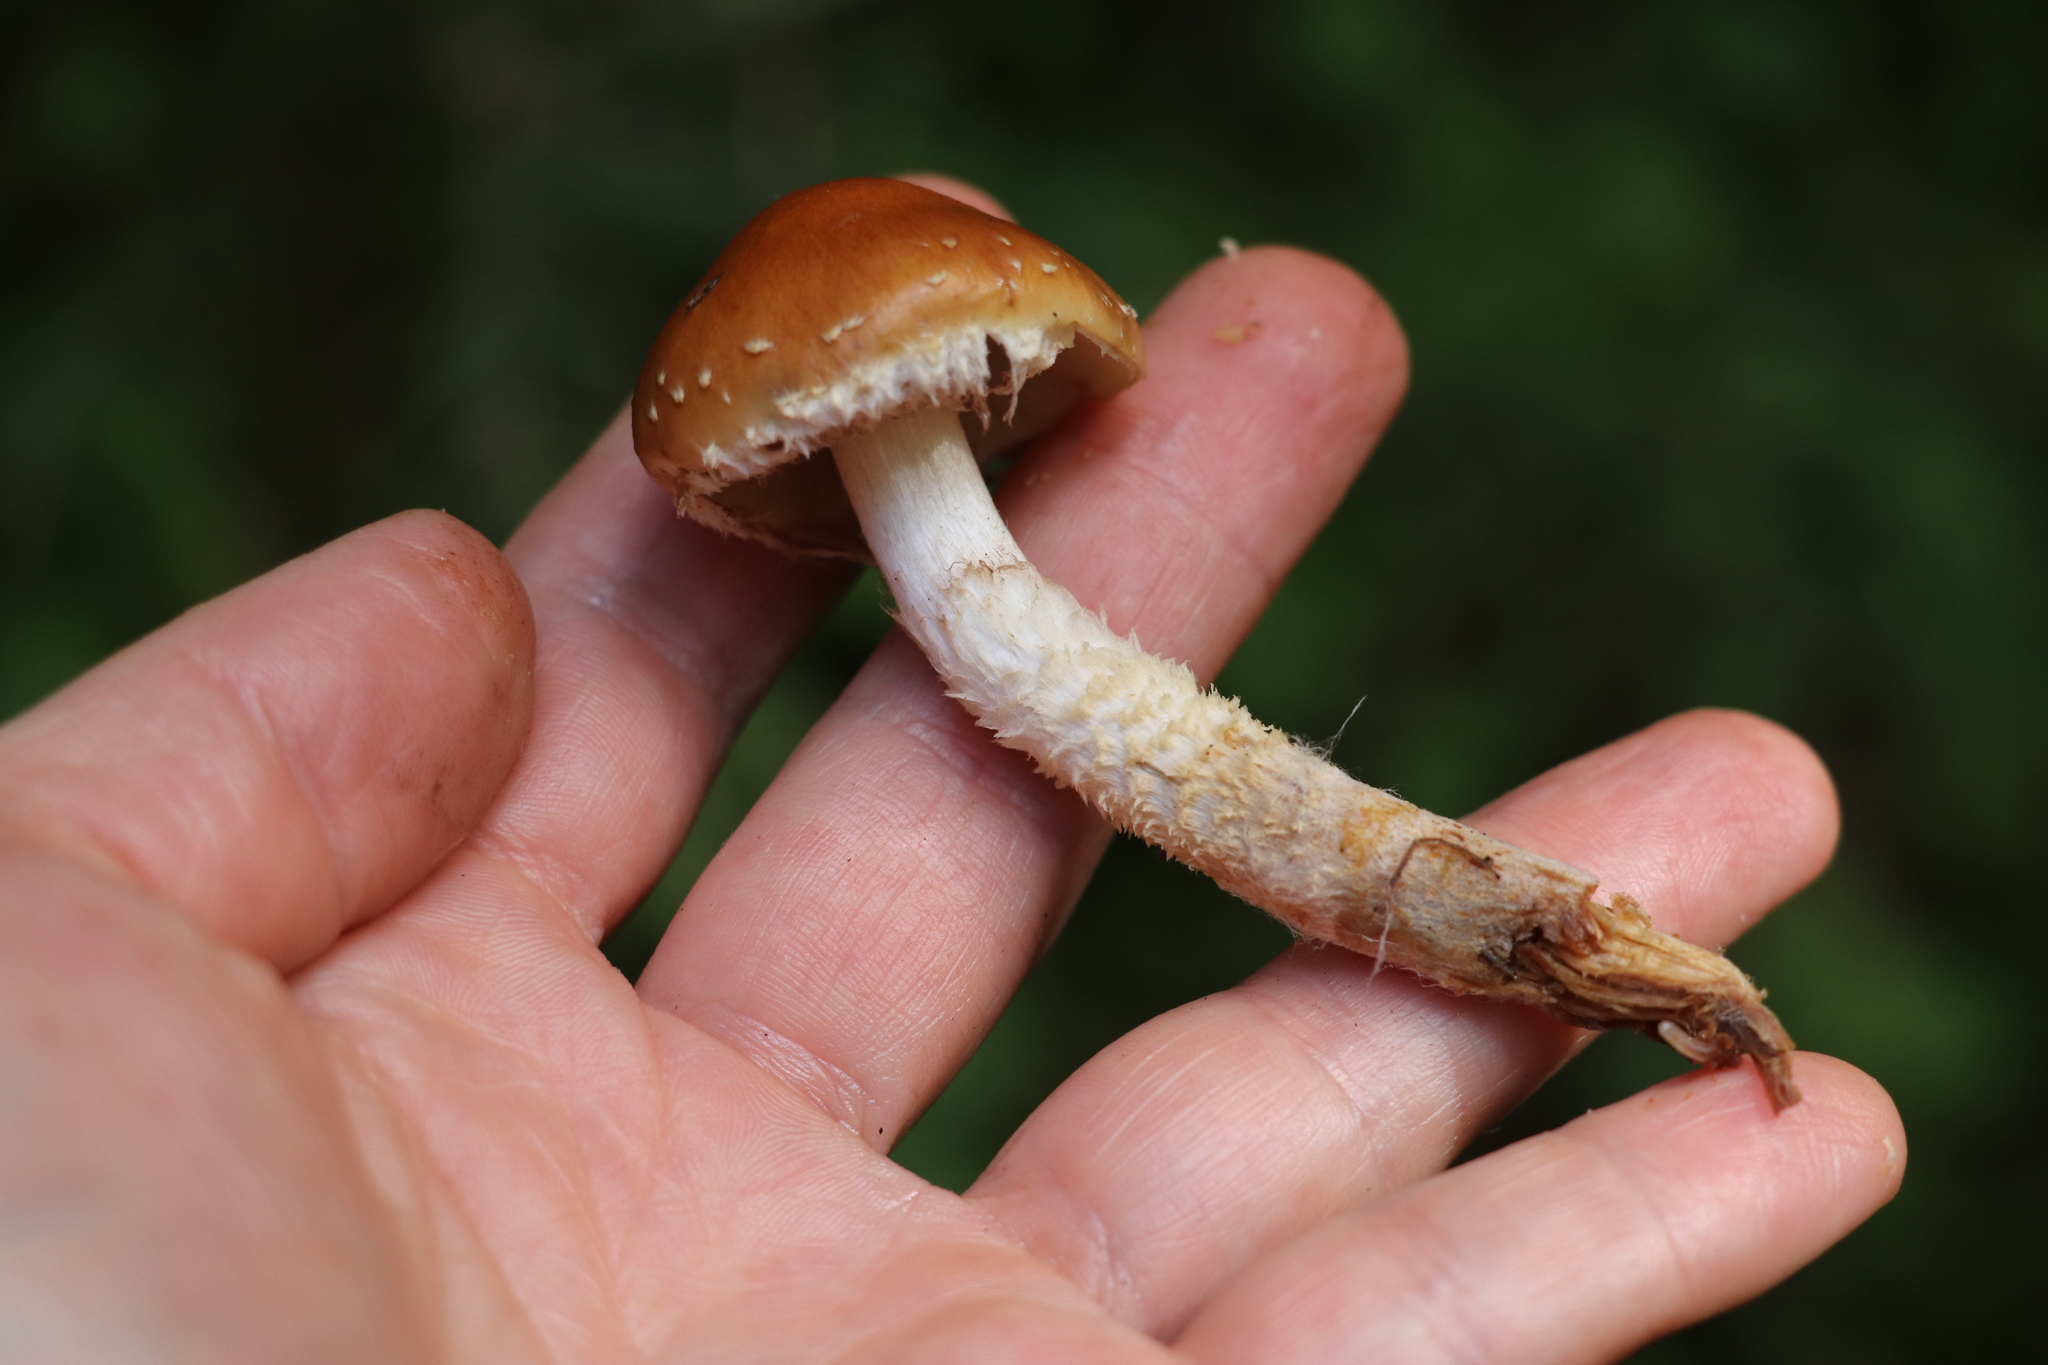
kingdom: Fungi
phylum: Basidiomycota
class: Agaricomycetes
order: Agaricales
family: Strophariaceae
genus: Pholiota
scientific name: Pholiota lubrica
